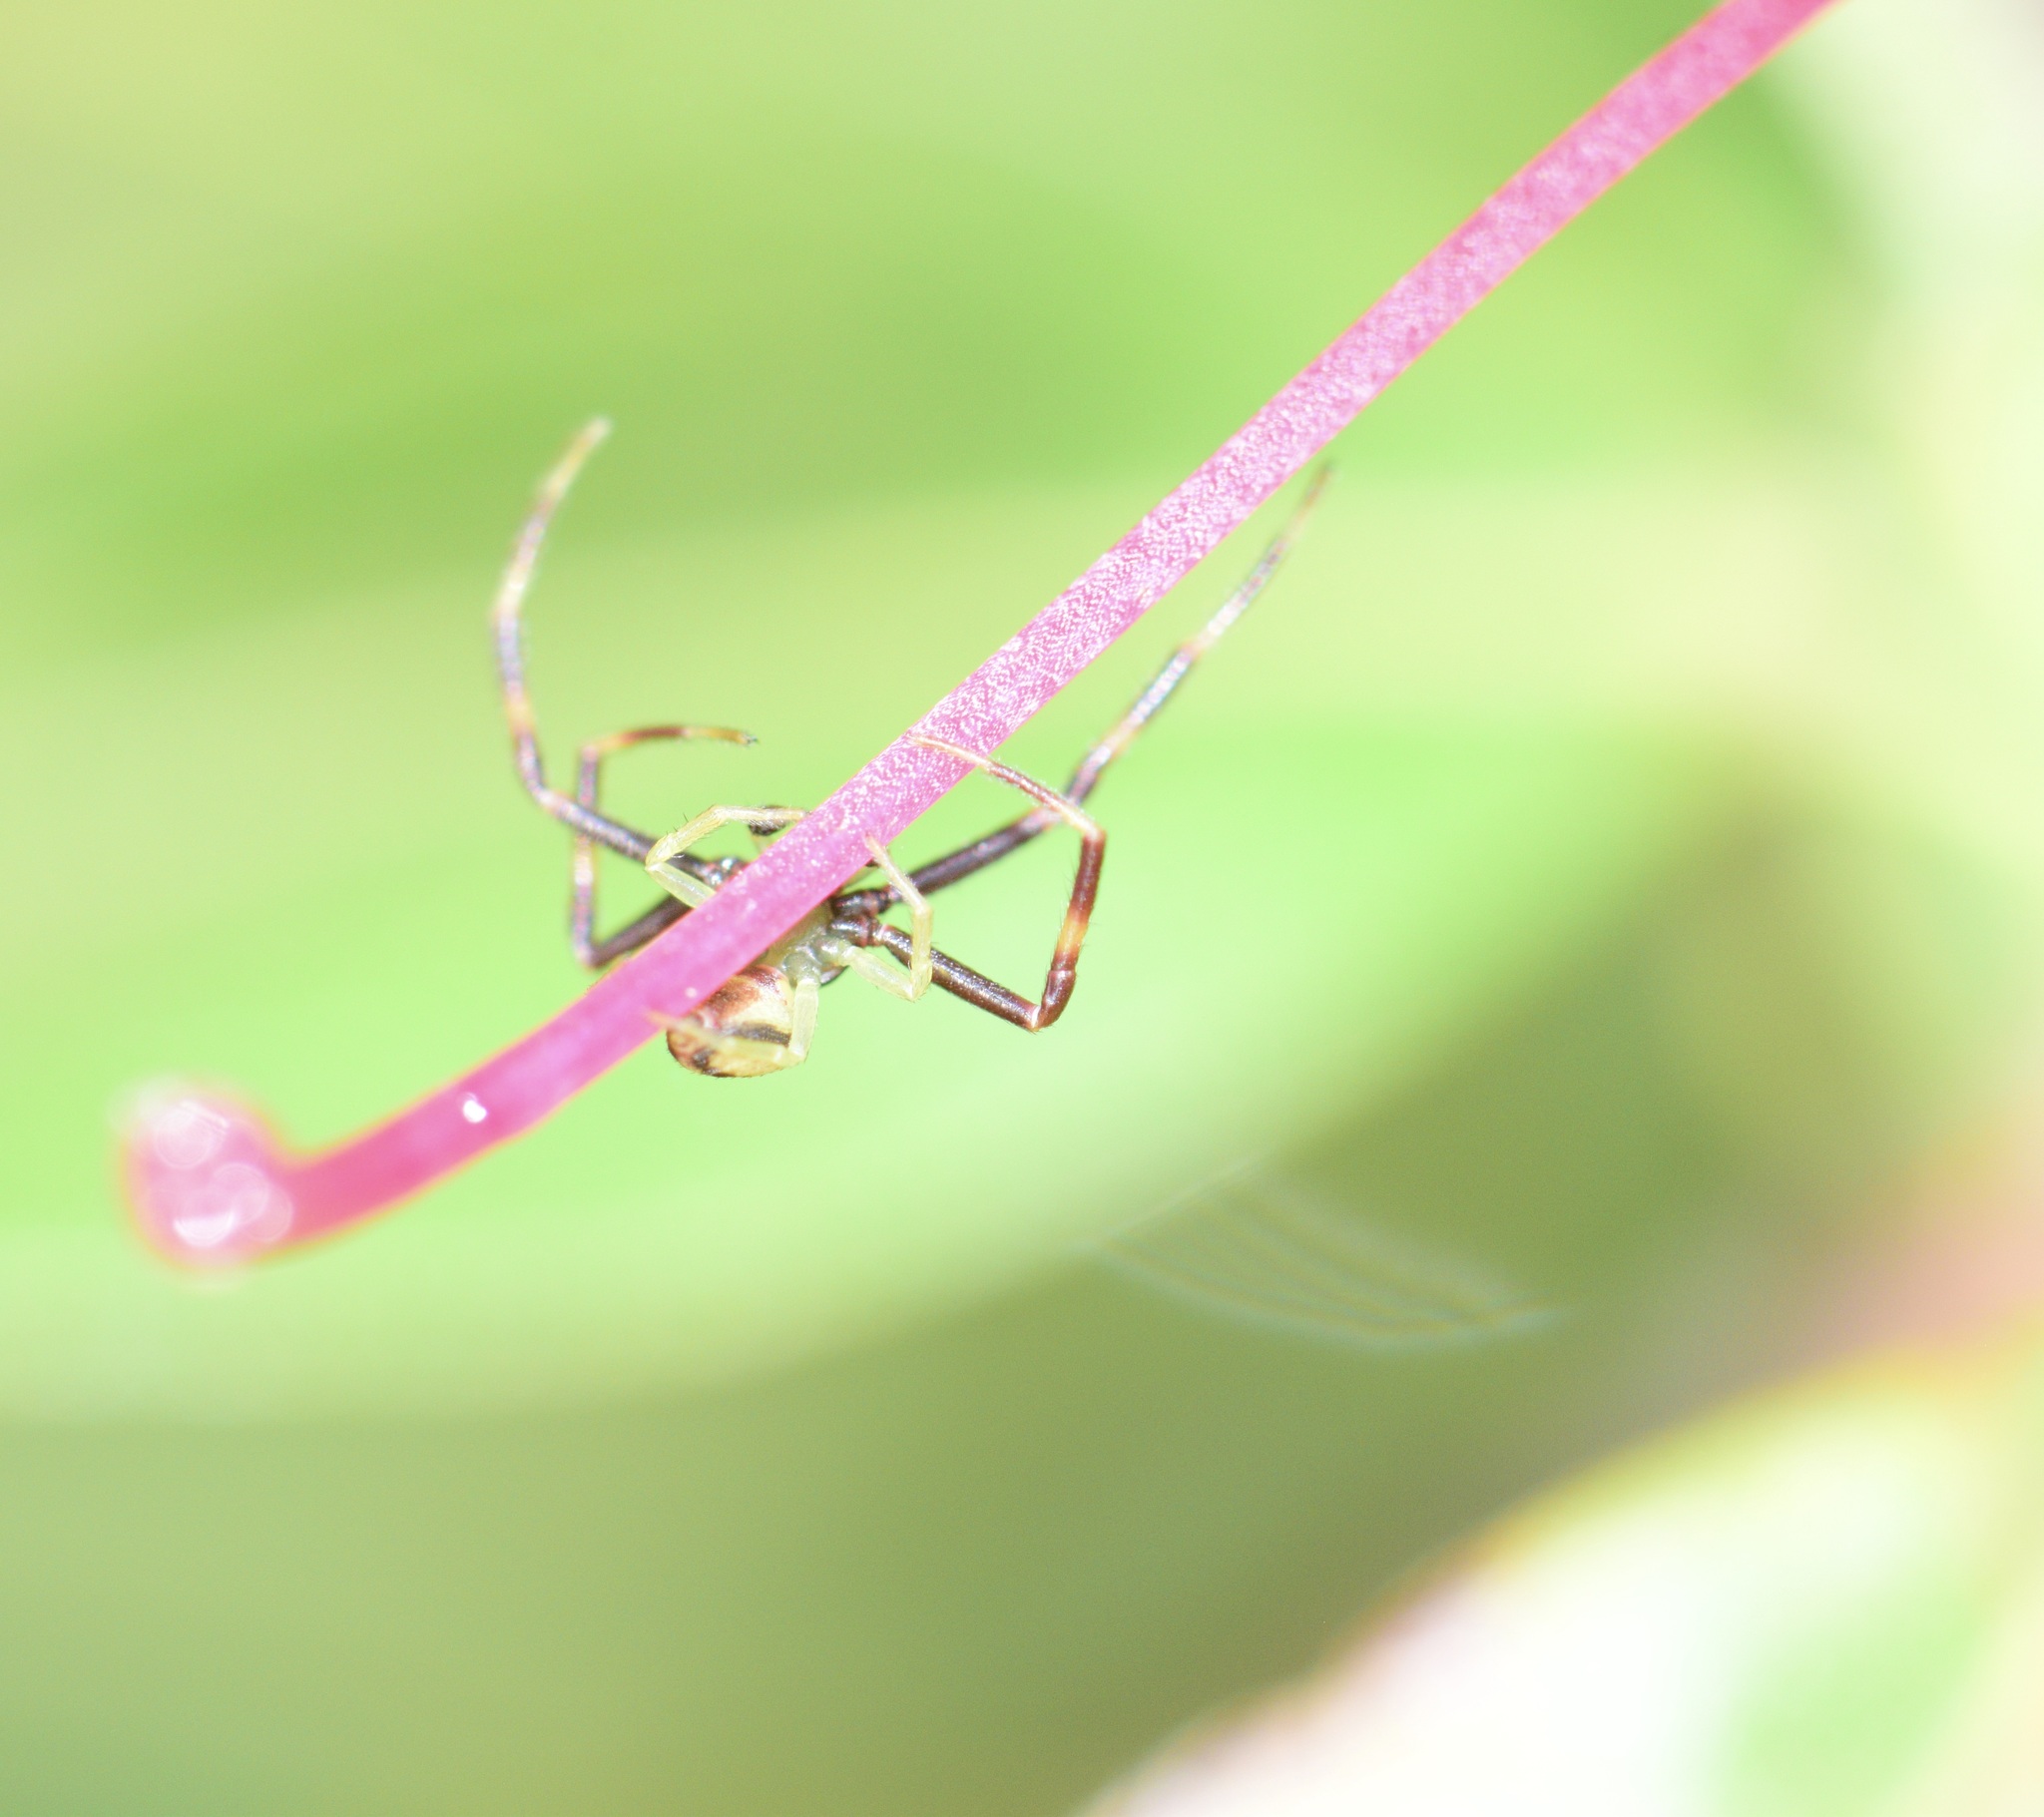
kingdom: Animalia
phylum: Arthropoda
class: Arachnida
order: Araneae
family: Thomisidae
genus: Misumena
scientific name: Misumena vatia
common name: Goldenrod crab spider
